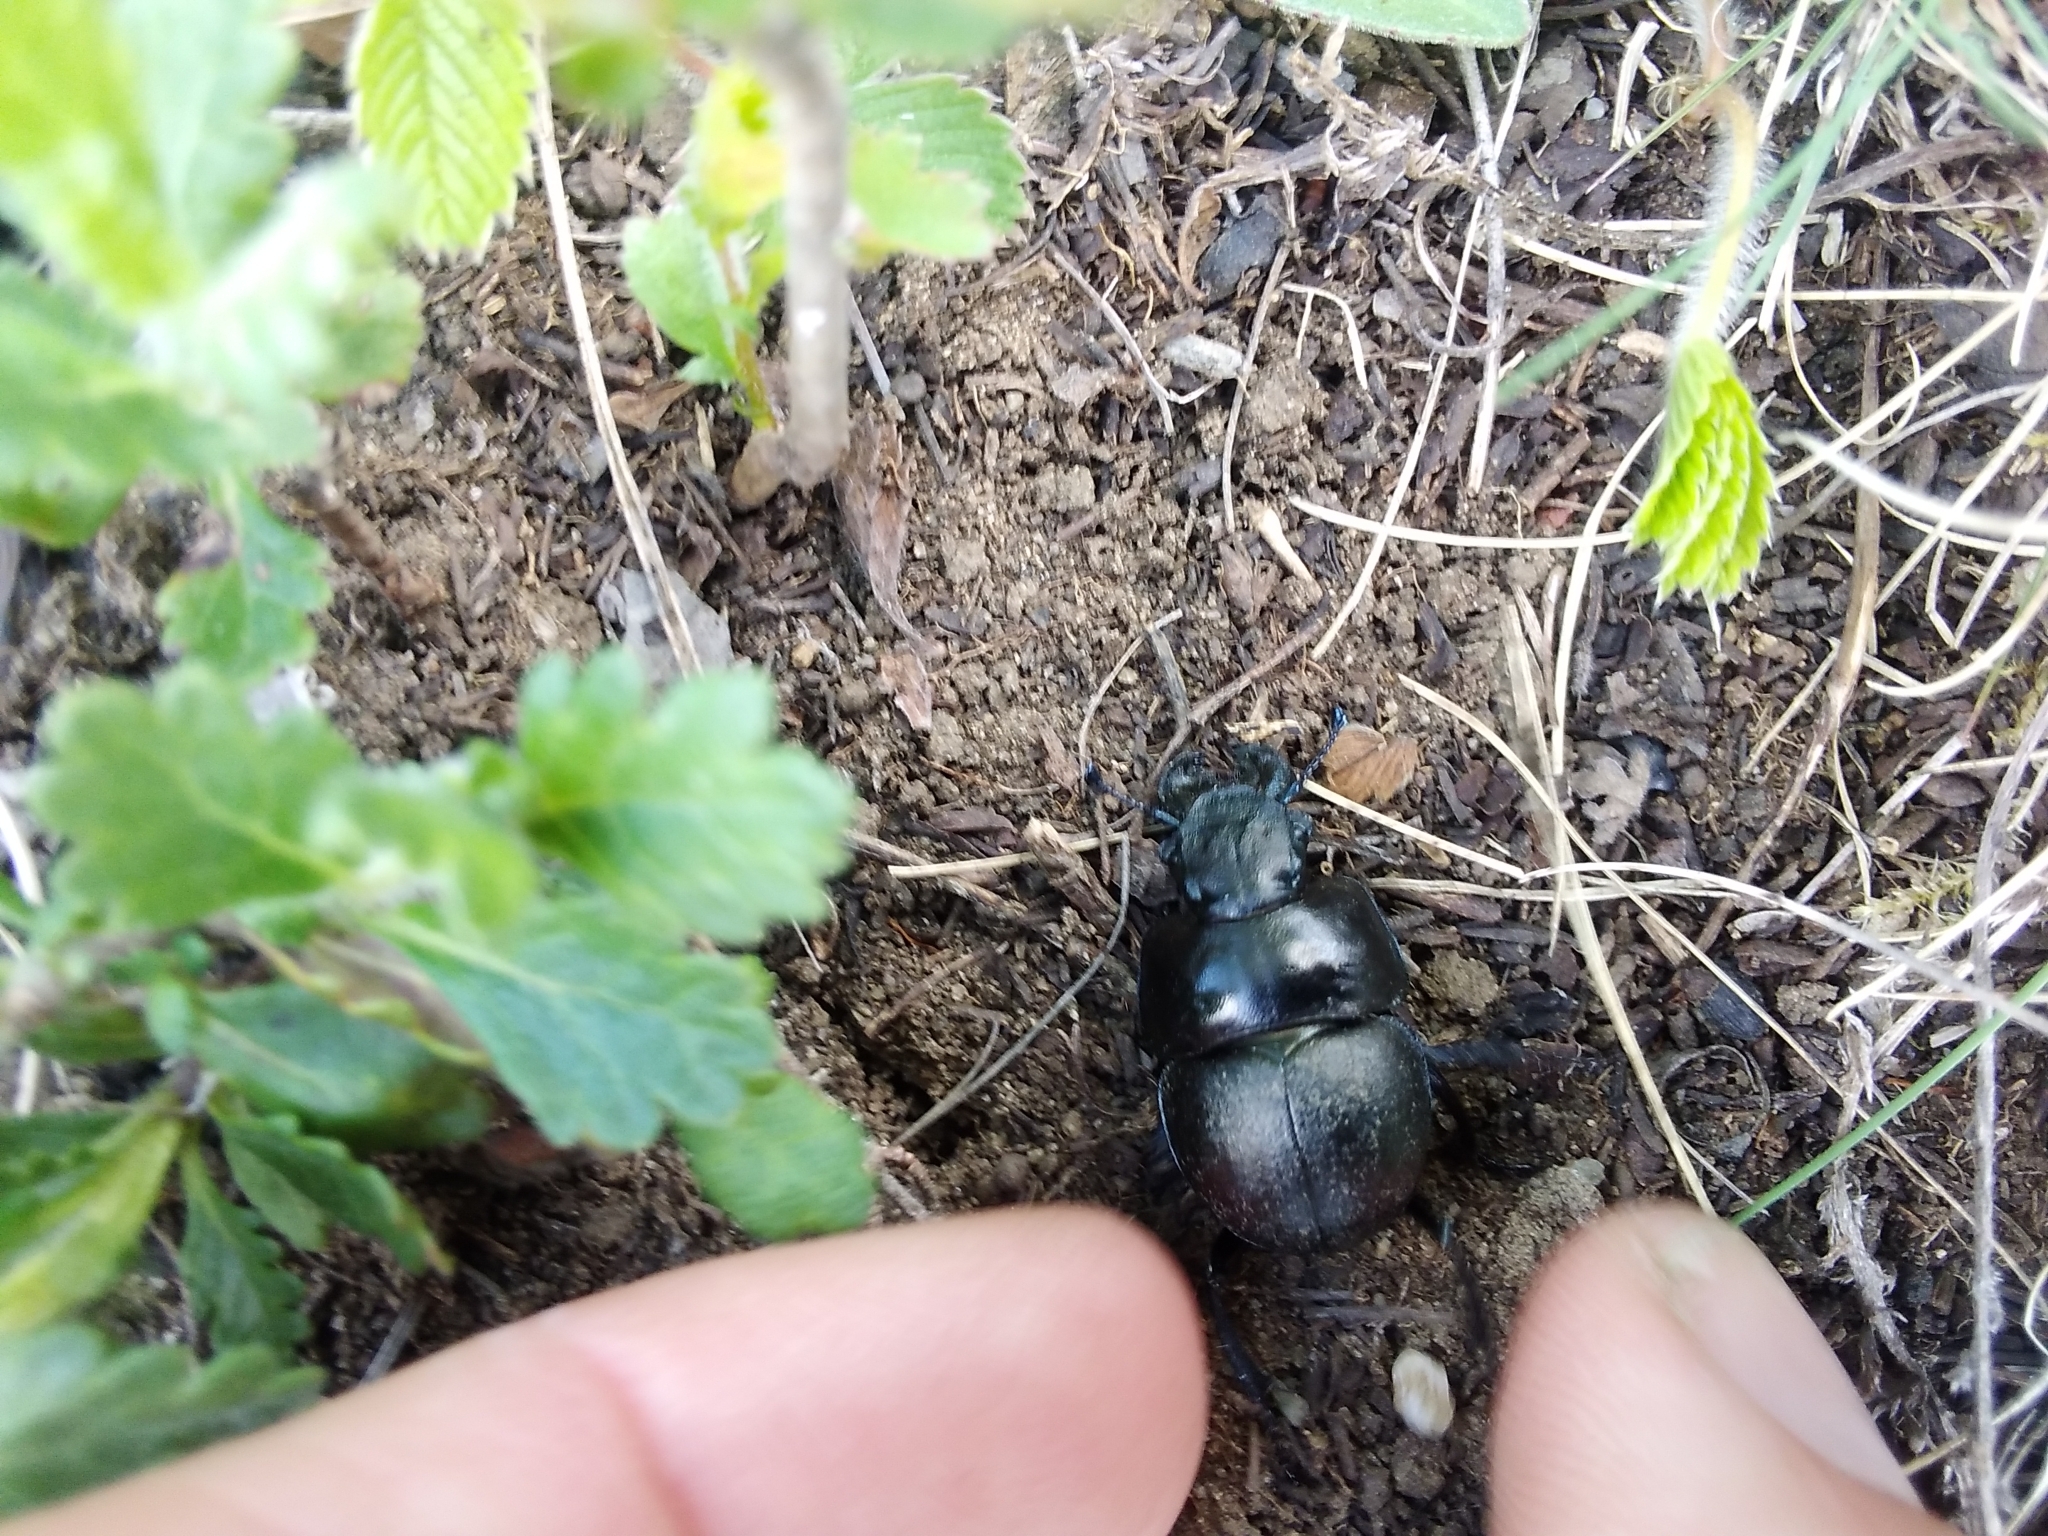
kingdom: Animalia
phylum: Arthropoda
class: Insecta
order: Coleoptera
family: Geotrupidae
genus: Lethrus
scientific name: Lethrus apterus
